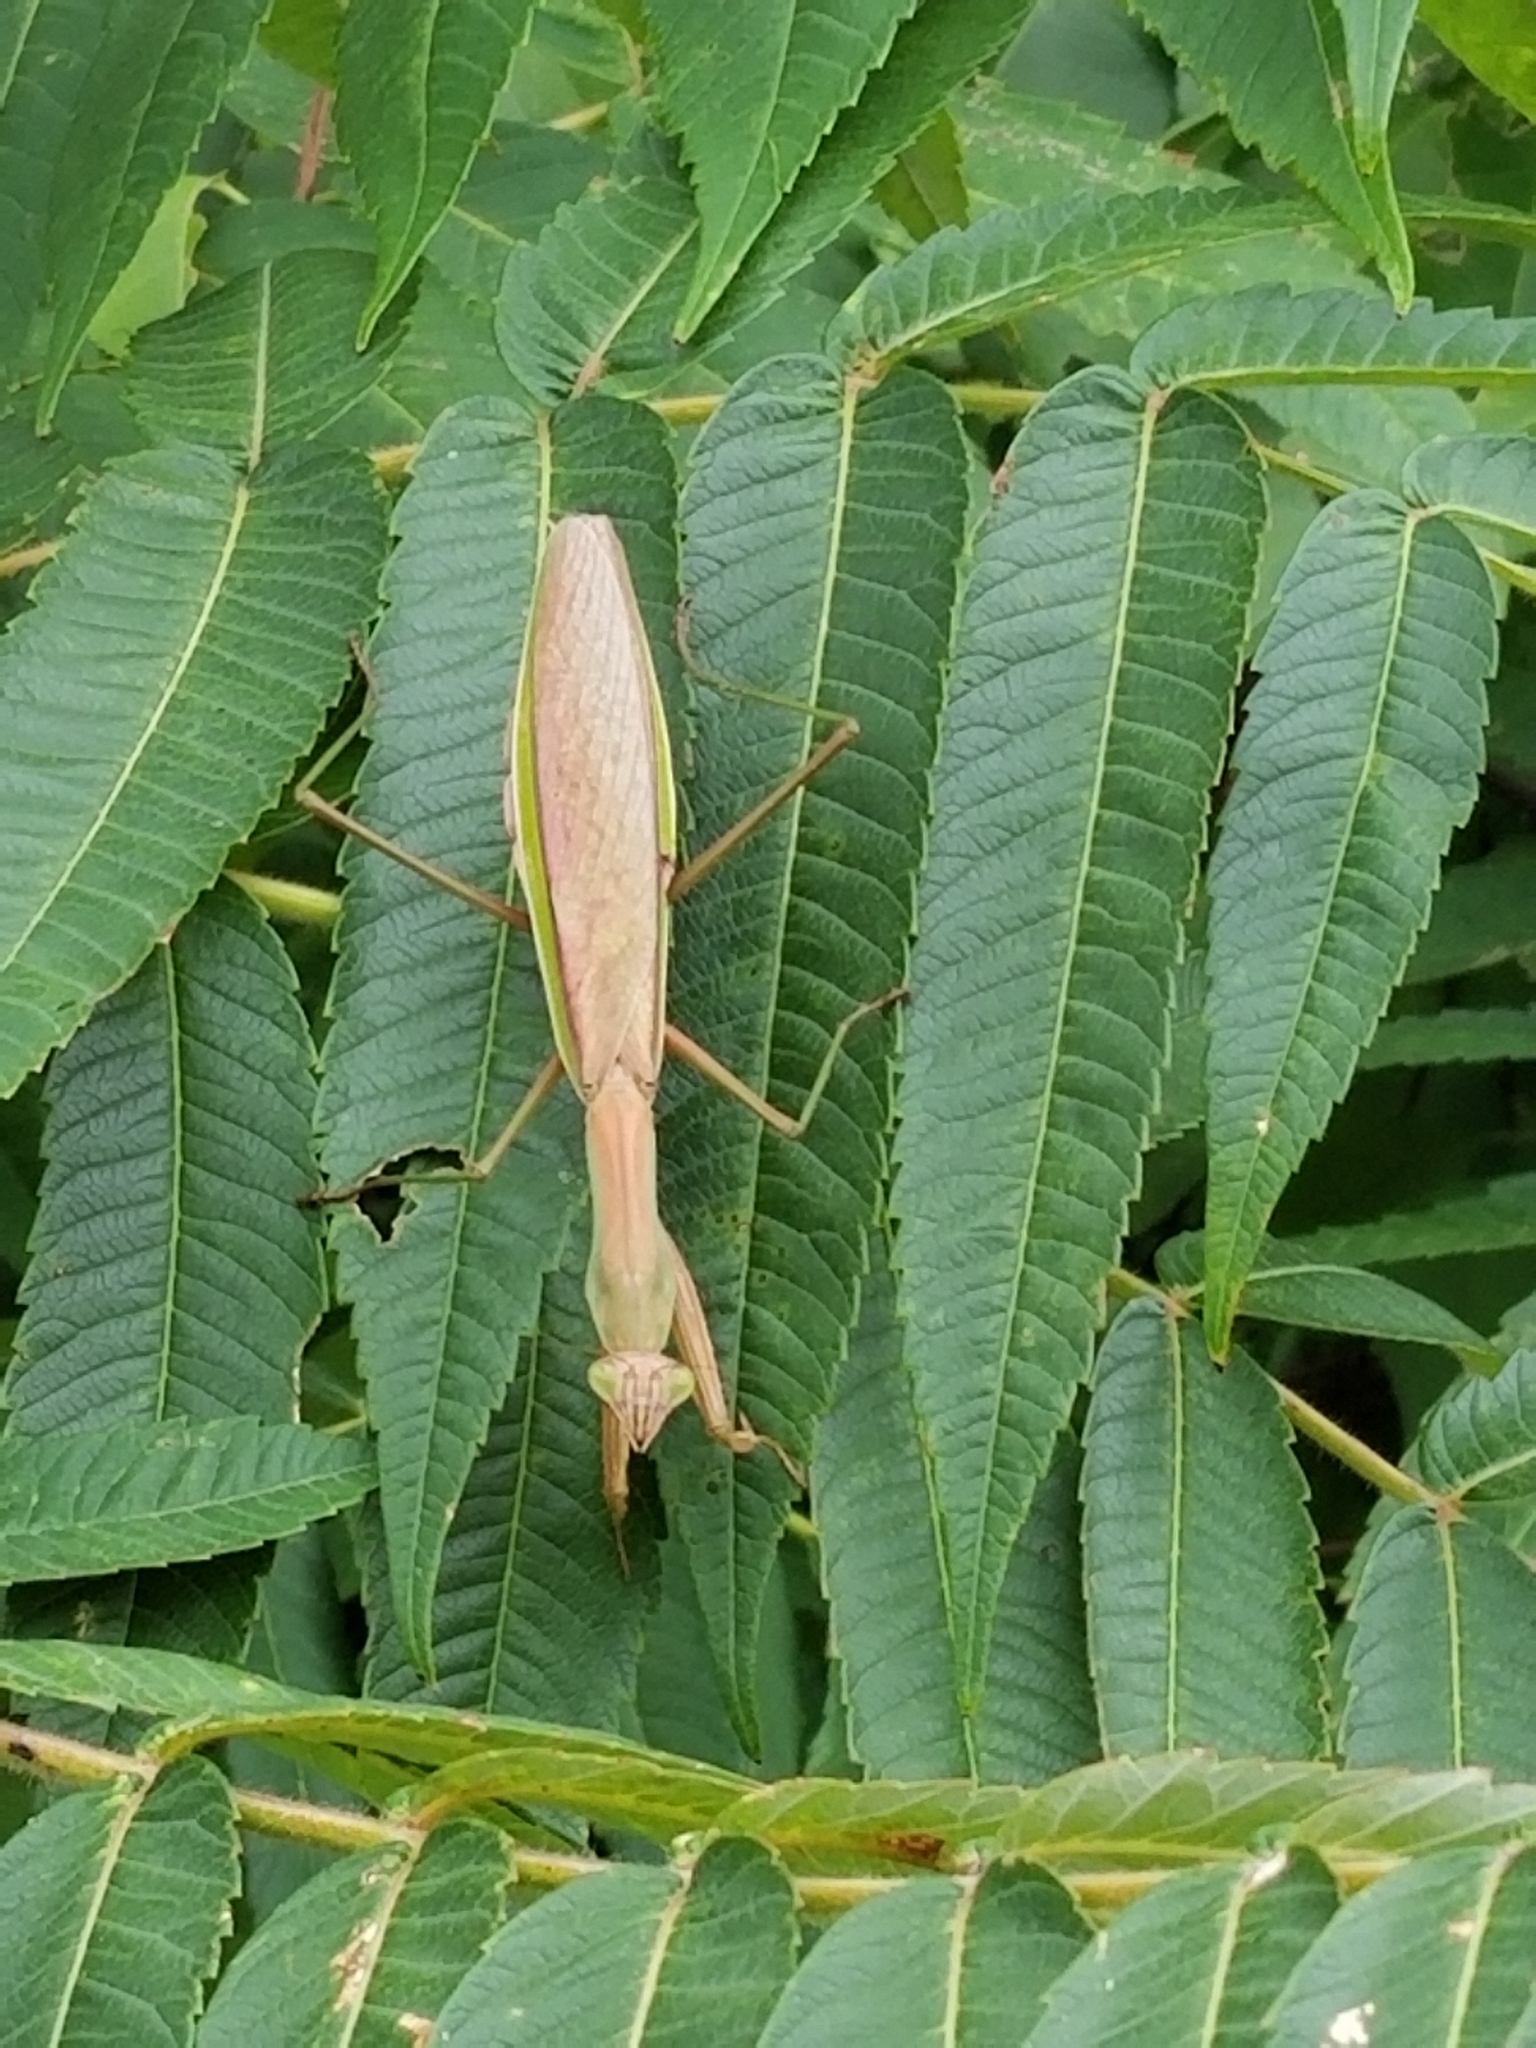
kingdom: Animalia
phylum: Arthropoda
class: Insecta
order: Mantodea
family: Mantidae
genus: Tenodera
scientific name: Tenodera sinensis
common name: Chinese mantis
